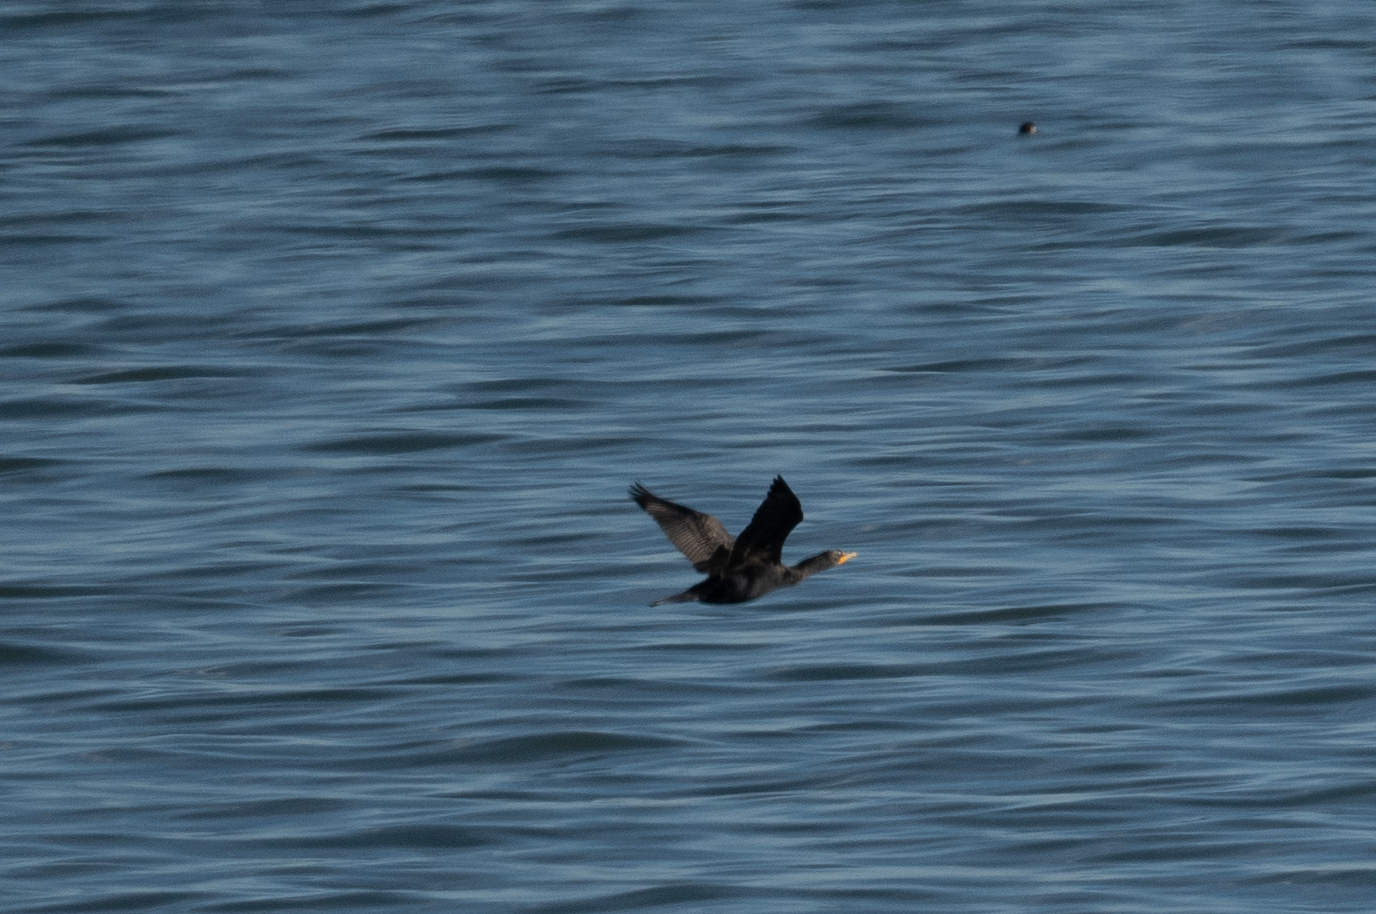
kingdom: Animalia
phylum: Chordata
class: Aves
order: Suliformes
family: Phalacrocoracidae
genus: Phalacrocorax
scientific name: Phalacrocorax auritus
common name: Double-crested cormorant
